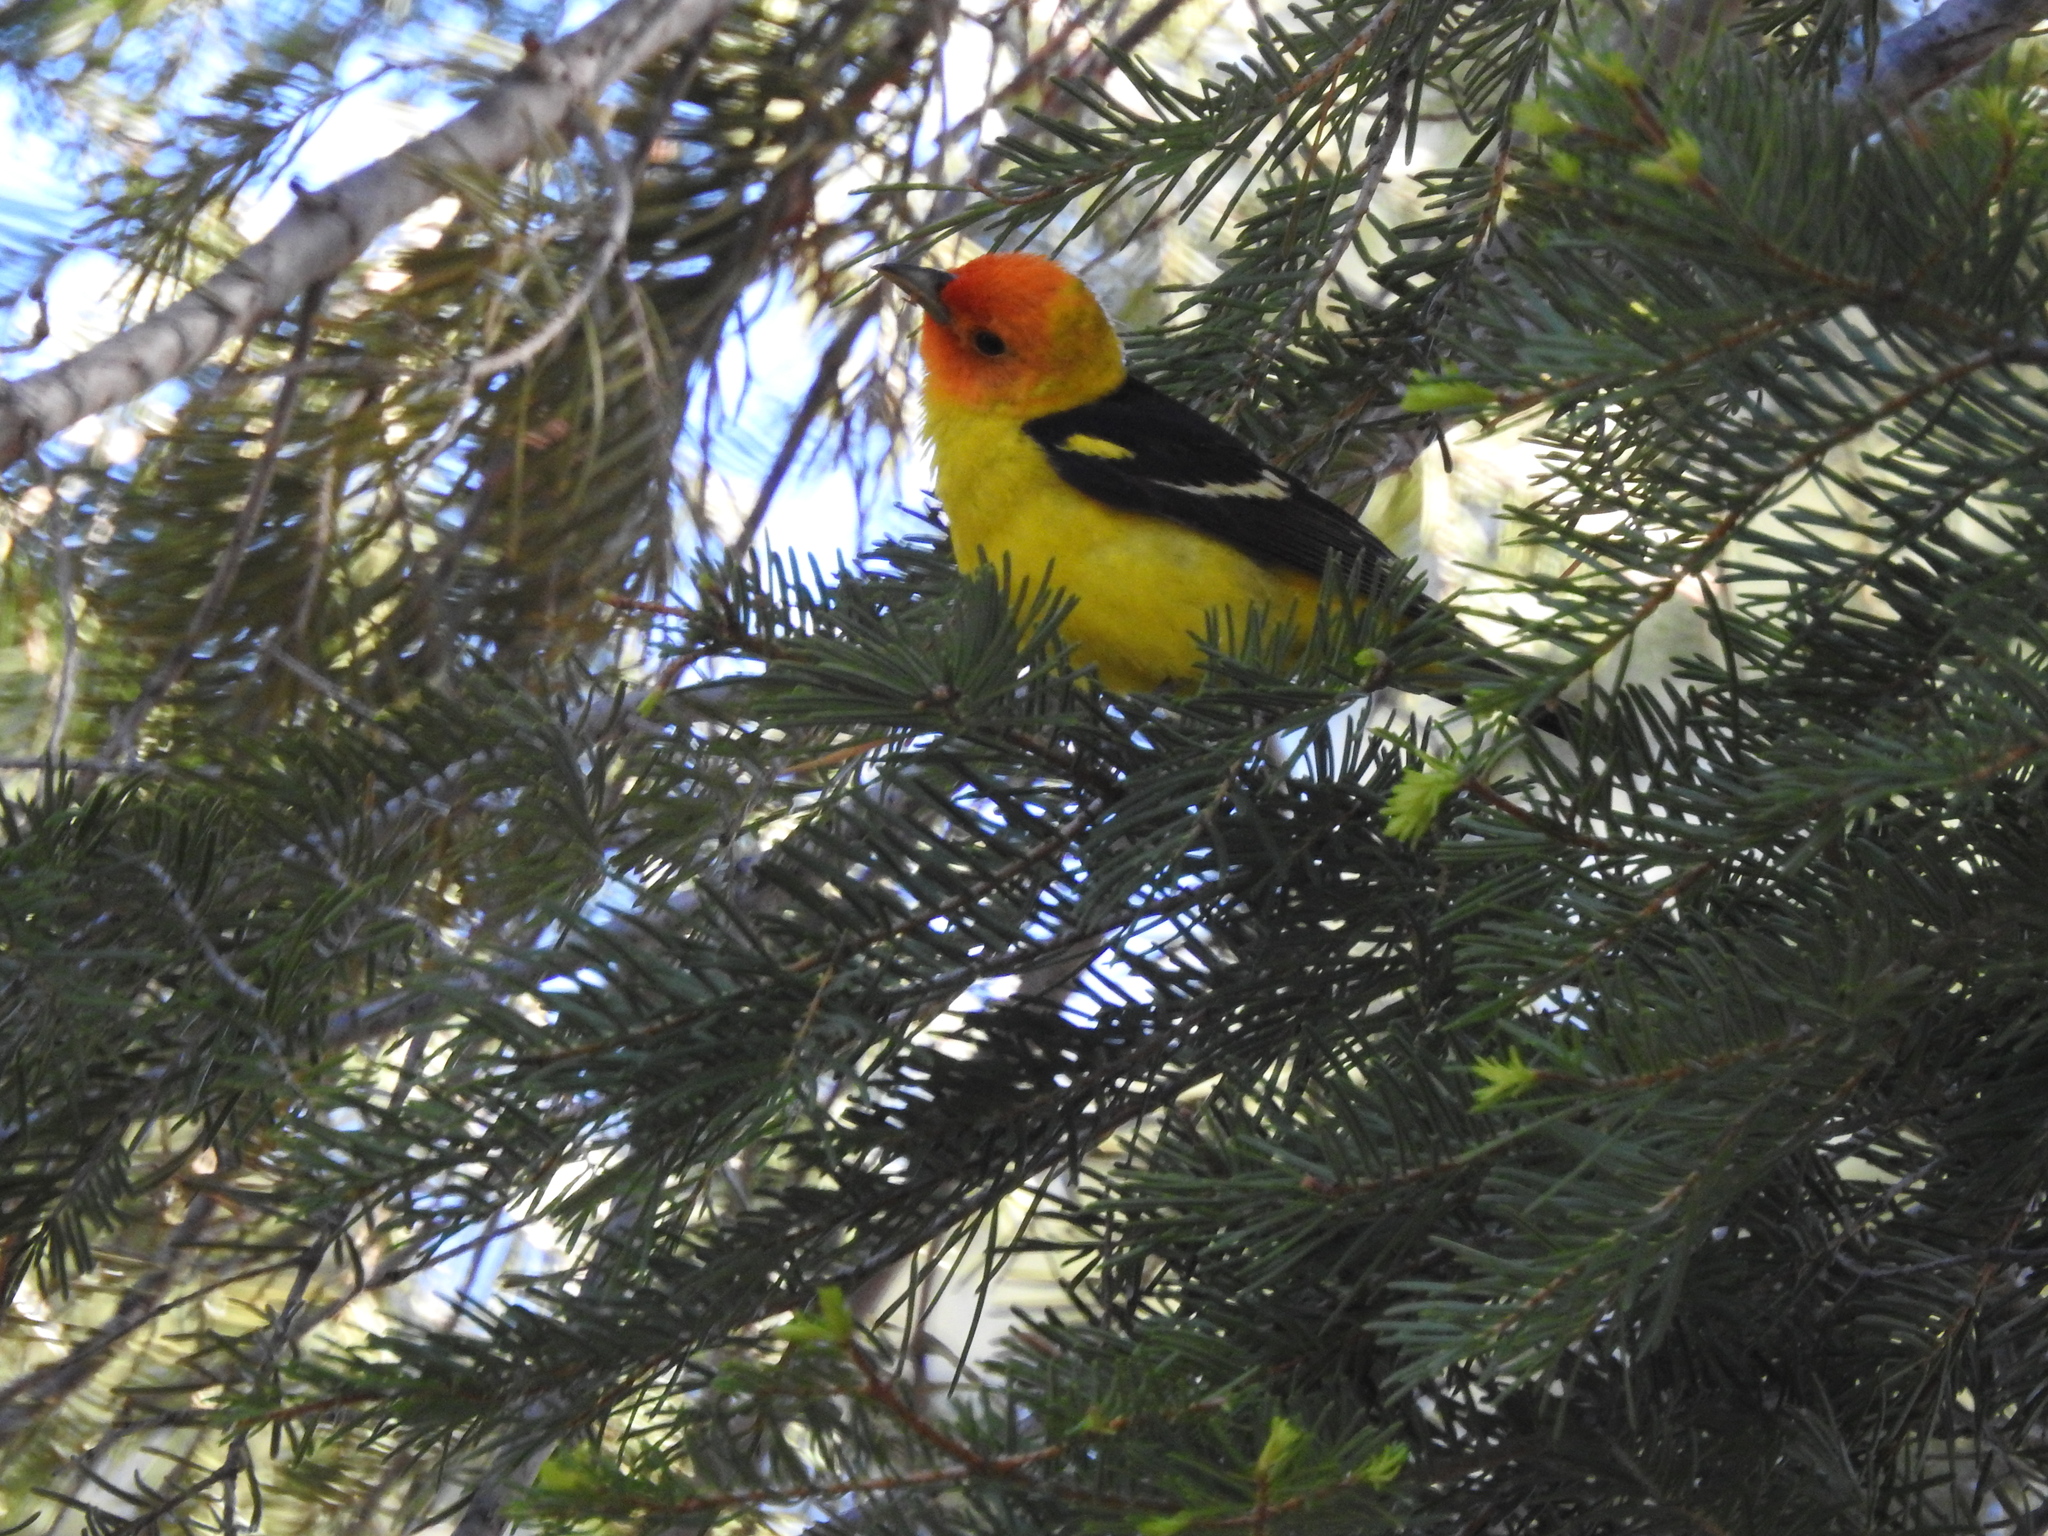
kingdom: Animalia
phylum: Chordata
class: Aves
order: Passeriformes
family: Cardinalidae
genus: Piranga
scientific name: Piranga ludoviciana
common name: Western tanager
